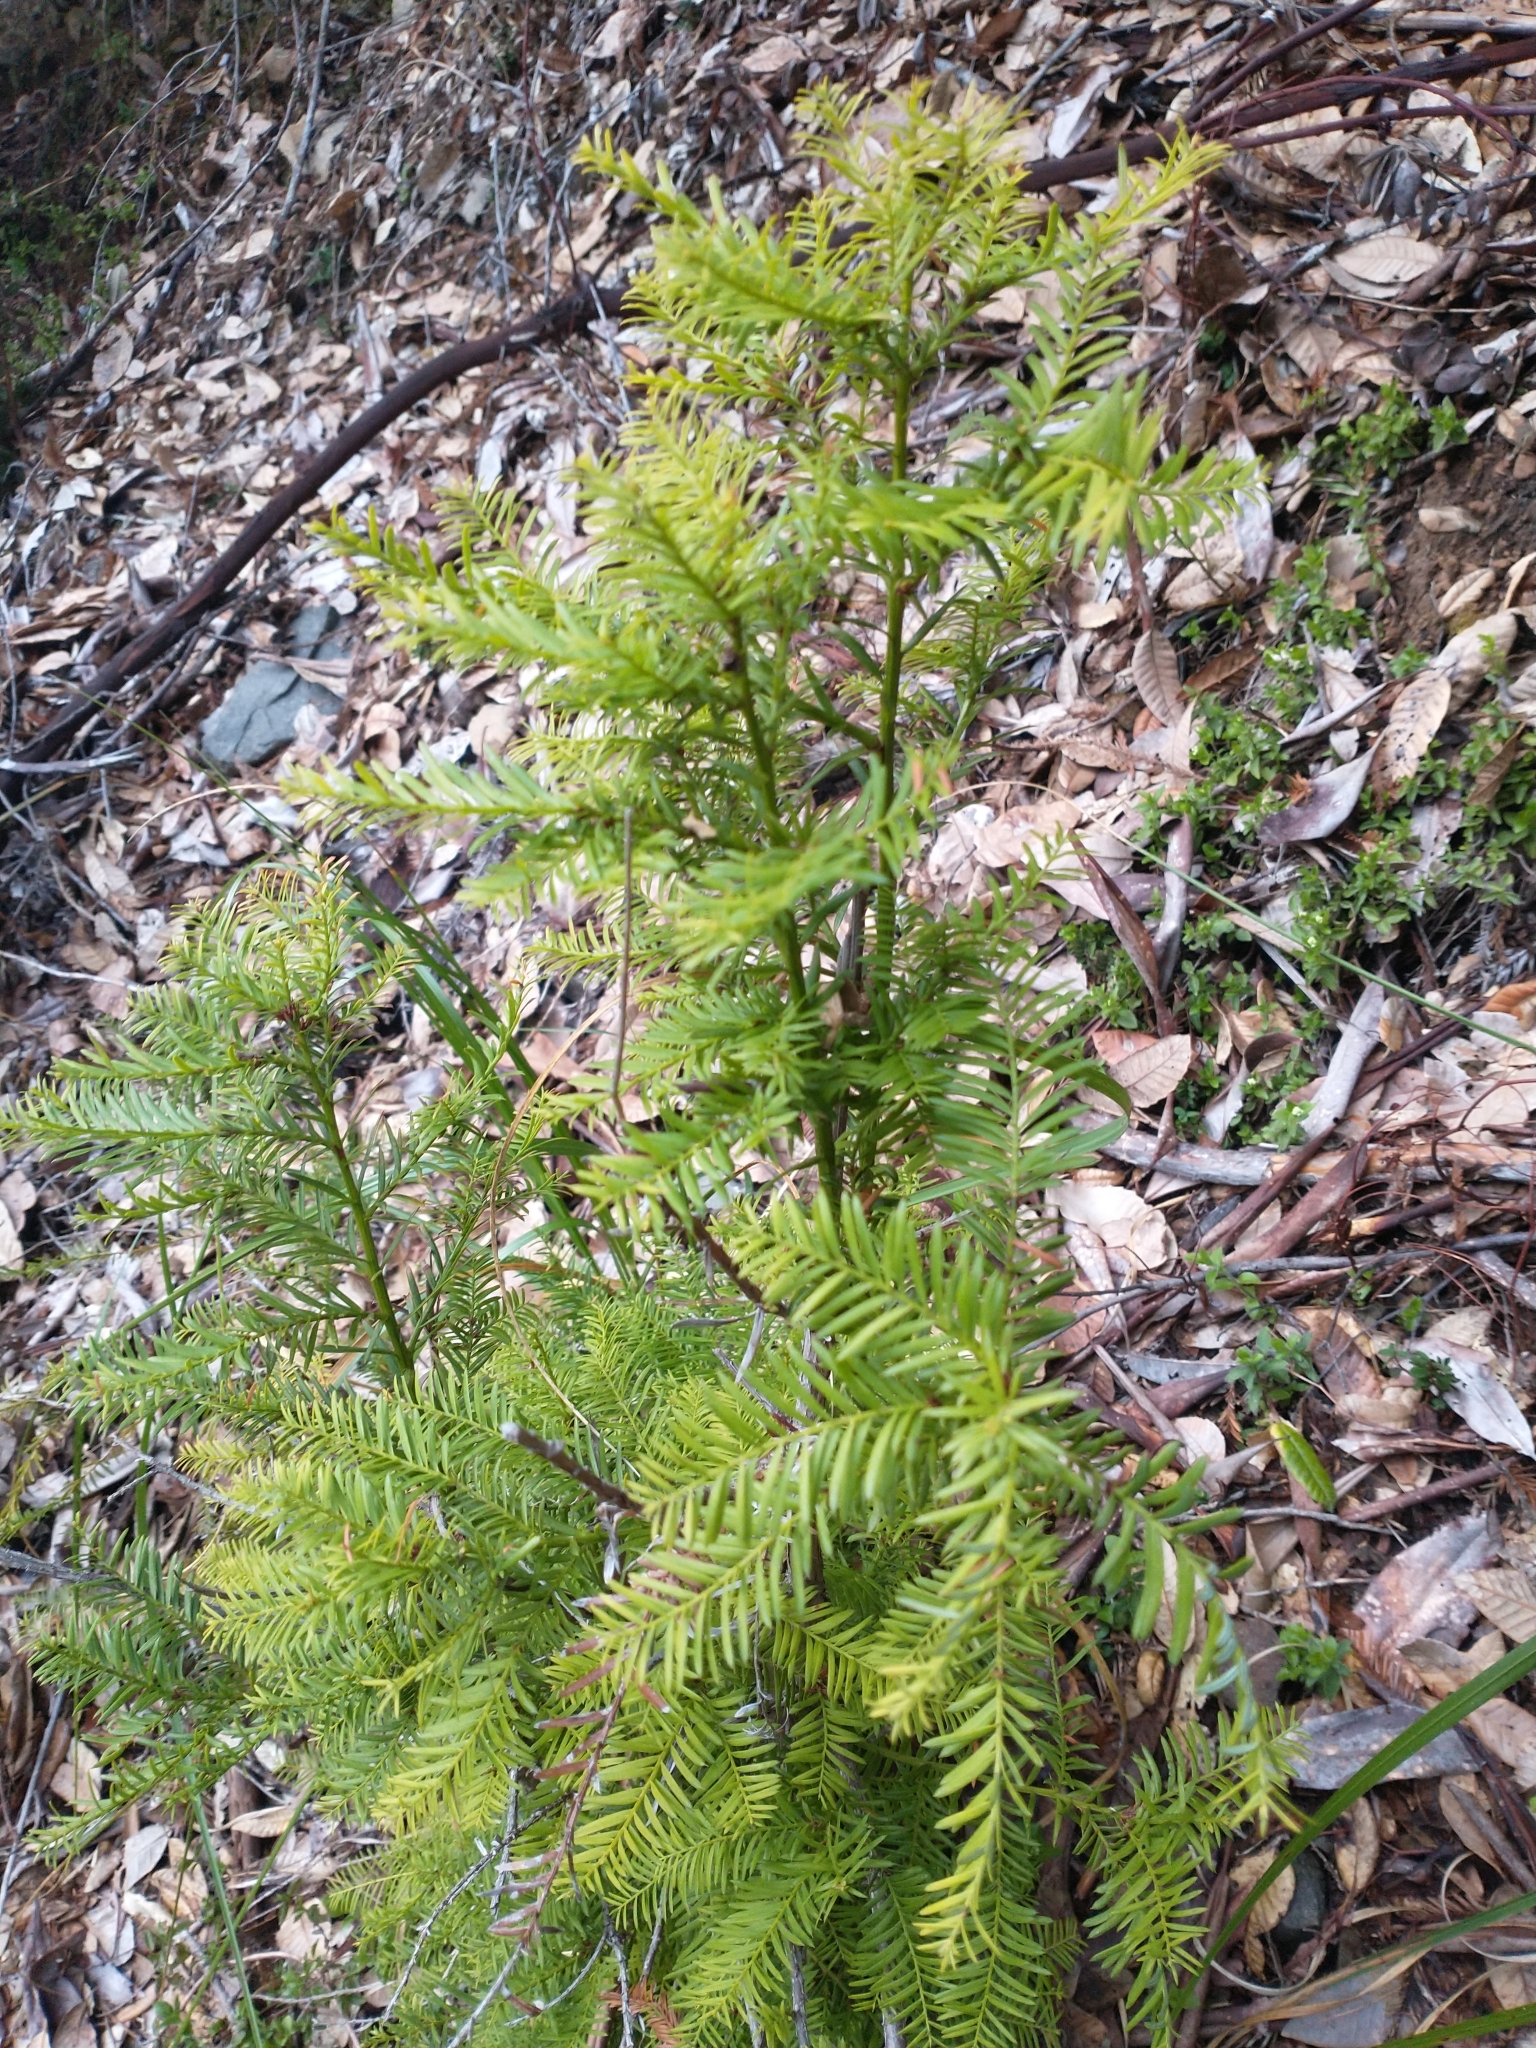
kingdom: Plantae
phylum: Tracheophyta
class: Pinopsida
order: Pinales
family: Cupressaceae
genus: Sequoia
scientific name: Sequoia sempervirens
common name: Coast redwood
